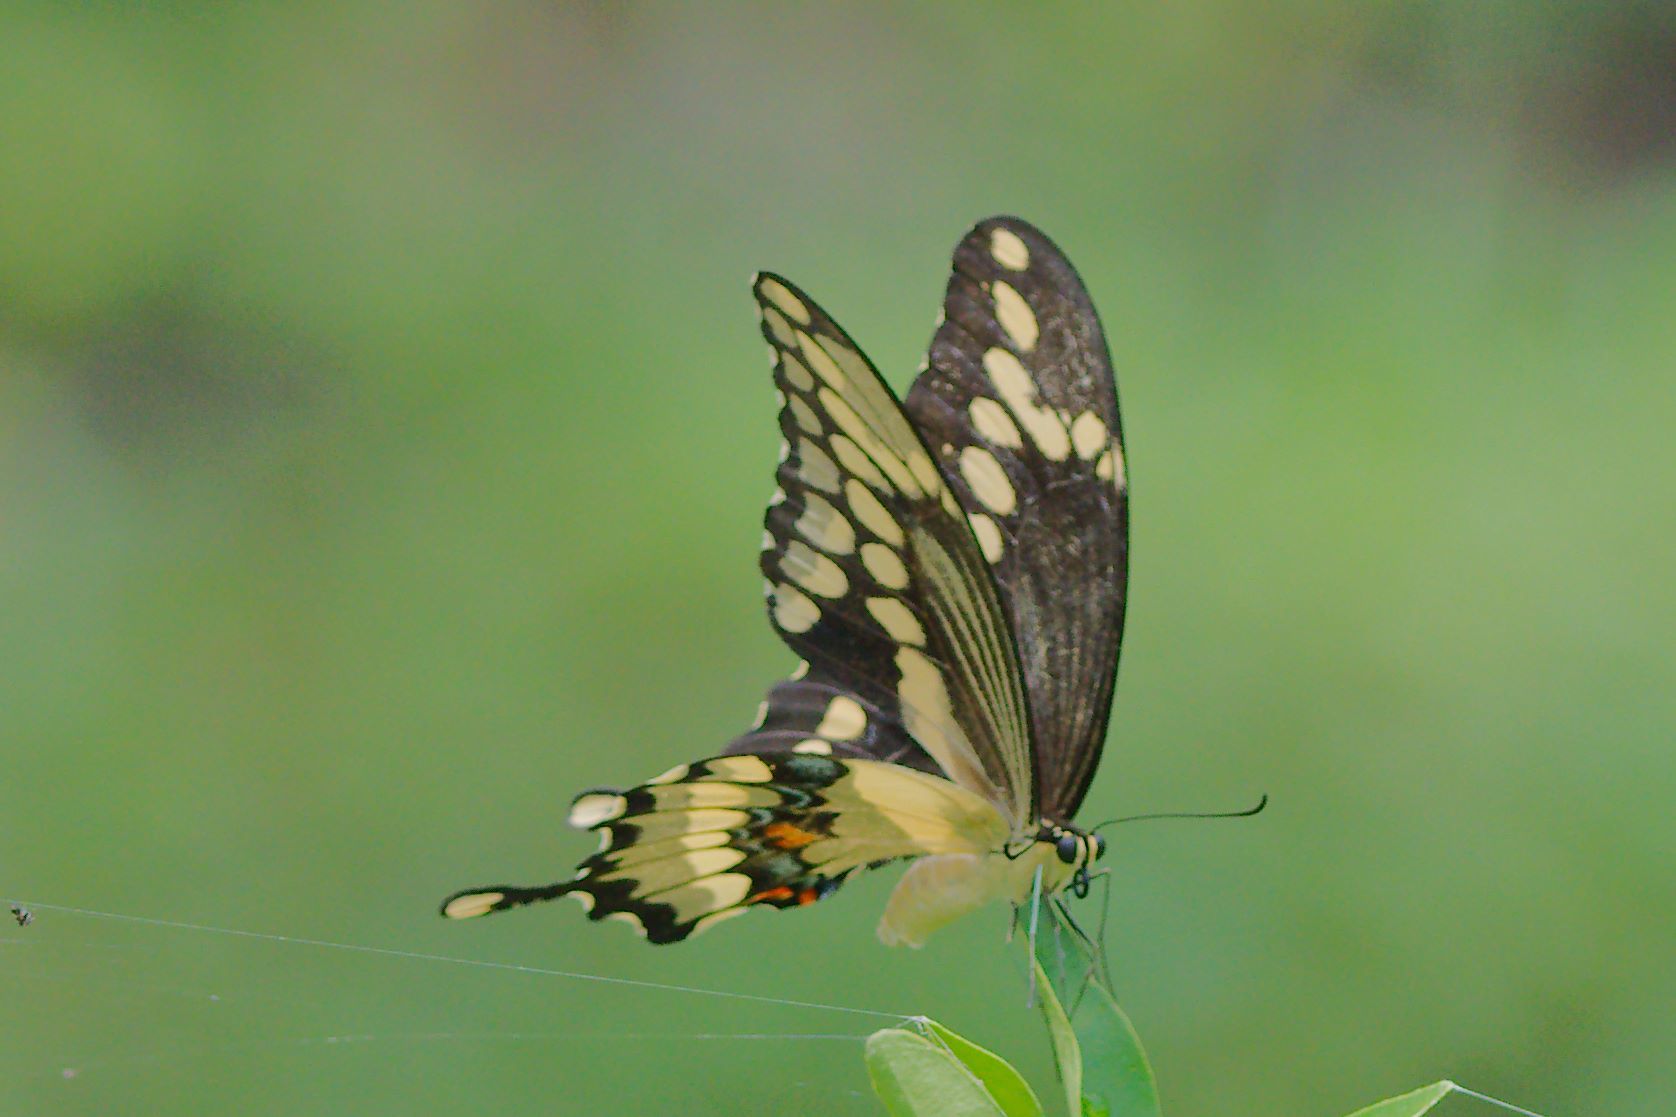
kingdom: Animalia
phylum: Arthropoda
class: Insecta
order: Lepidoptera
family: Papilionidae
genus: Papilio
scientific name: Papilio cresphontes
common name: Giant swallowtail
